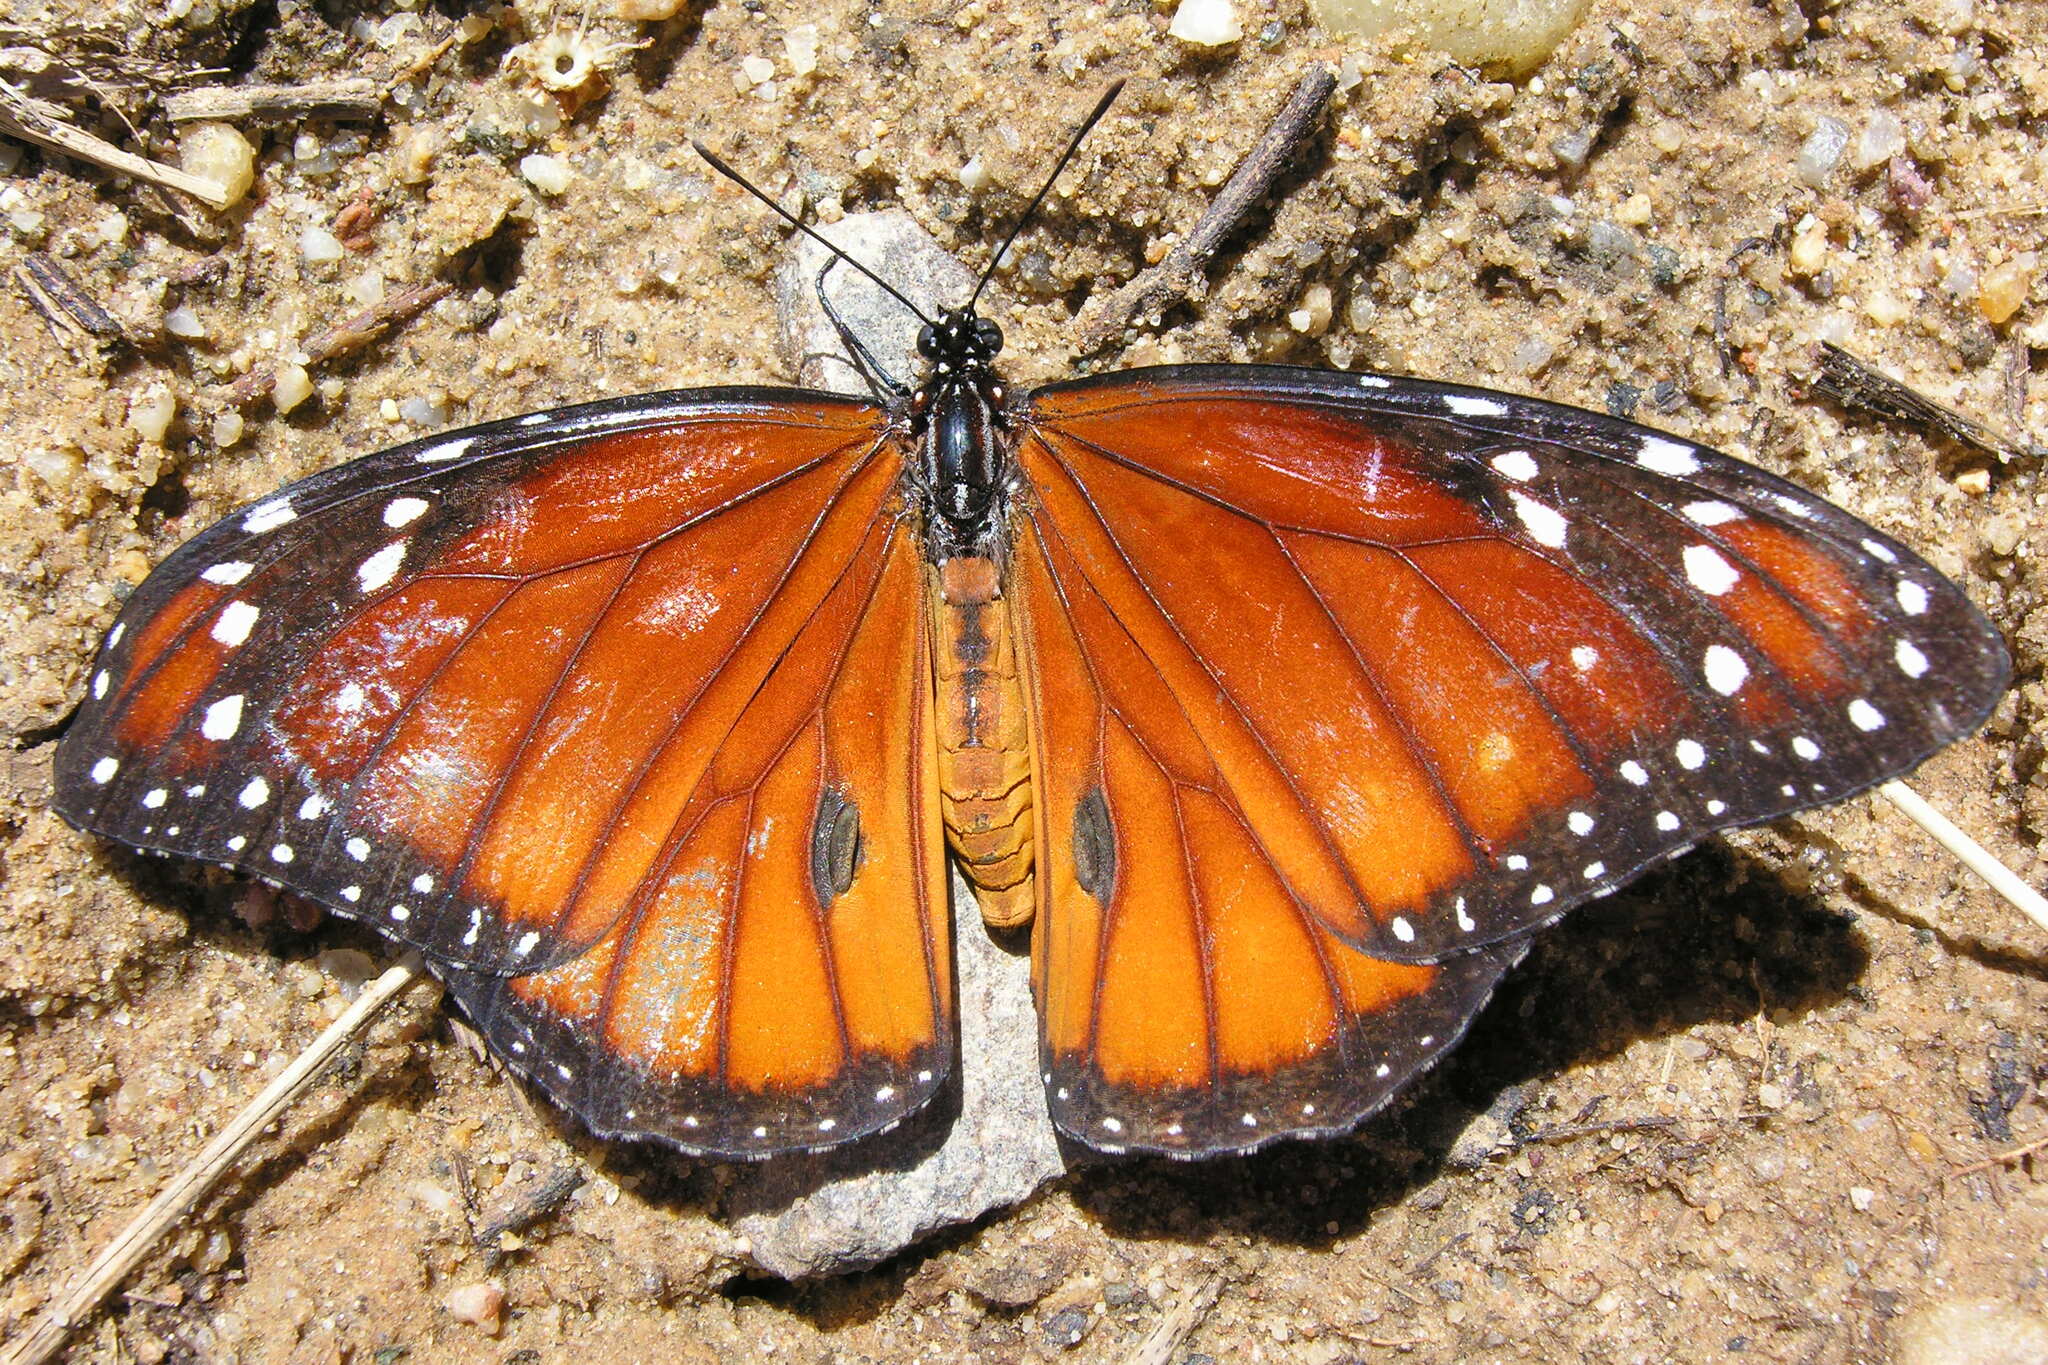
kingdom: Animalia
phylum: Arthropoda
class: Insecta
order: Lepidoptera
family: Nymphalidae
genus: Danaus
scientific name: Danaus eresimus
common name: Soldier
